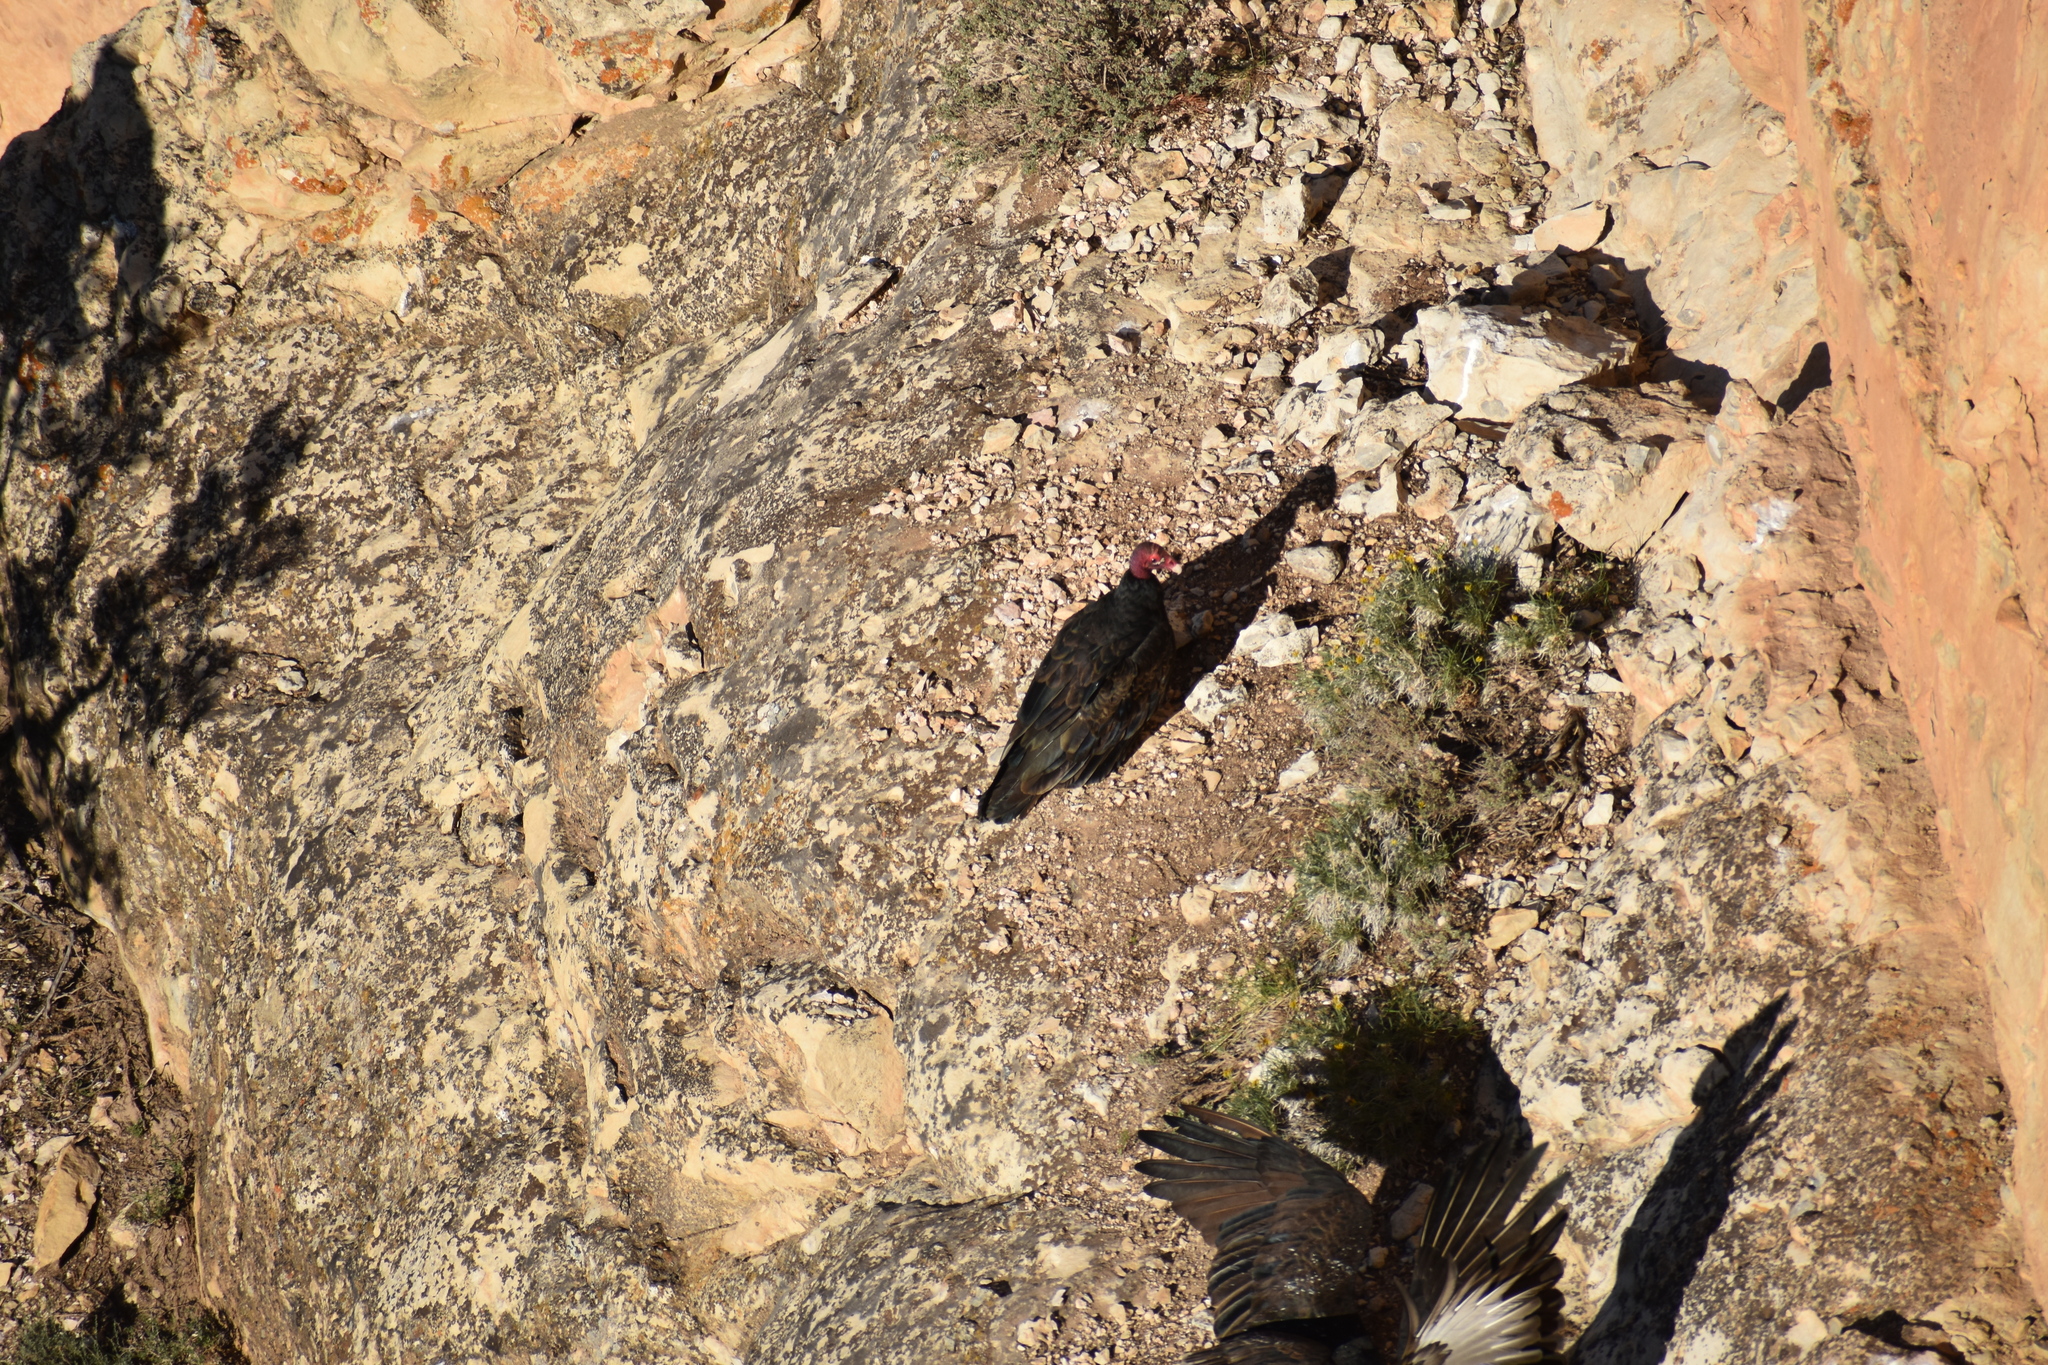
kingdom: Animalia
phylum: Chordata
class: Aves
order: Accipitriformes
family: Cathartidae
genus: Cathartes
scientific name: Cathartes aura
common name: Turkey vulture
